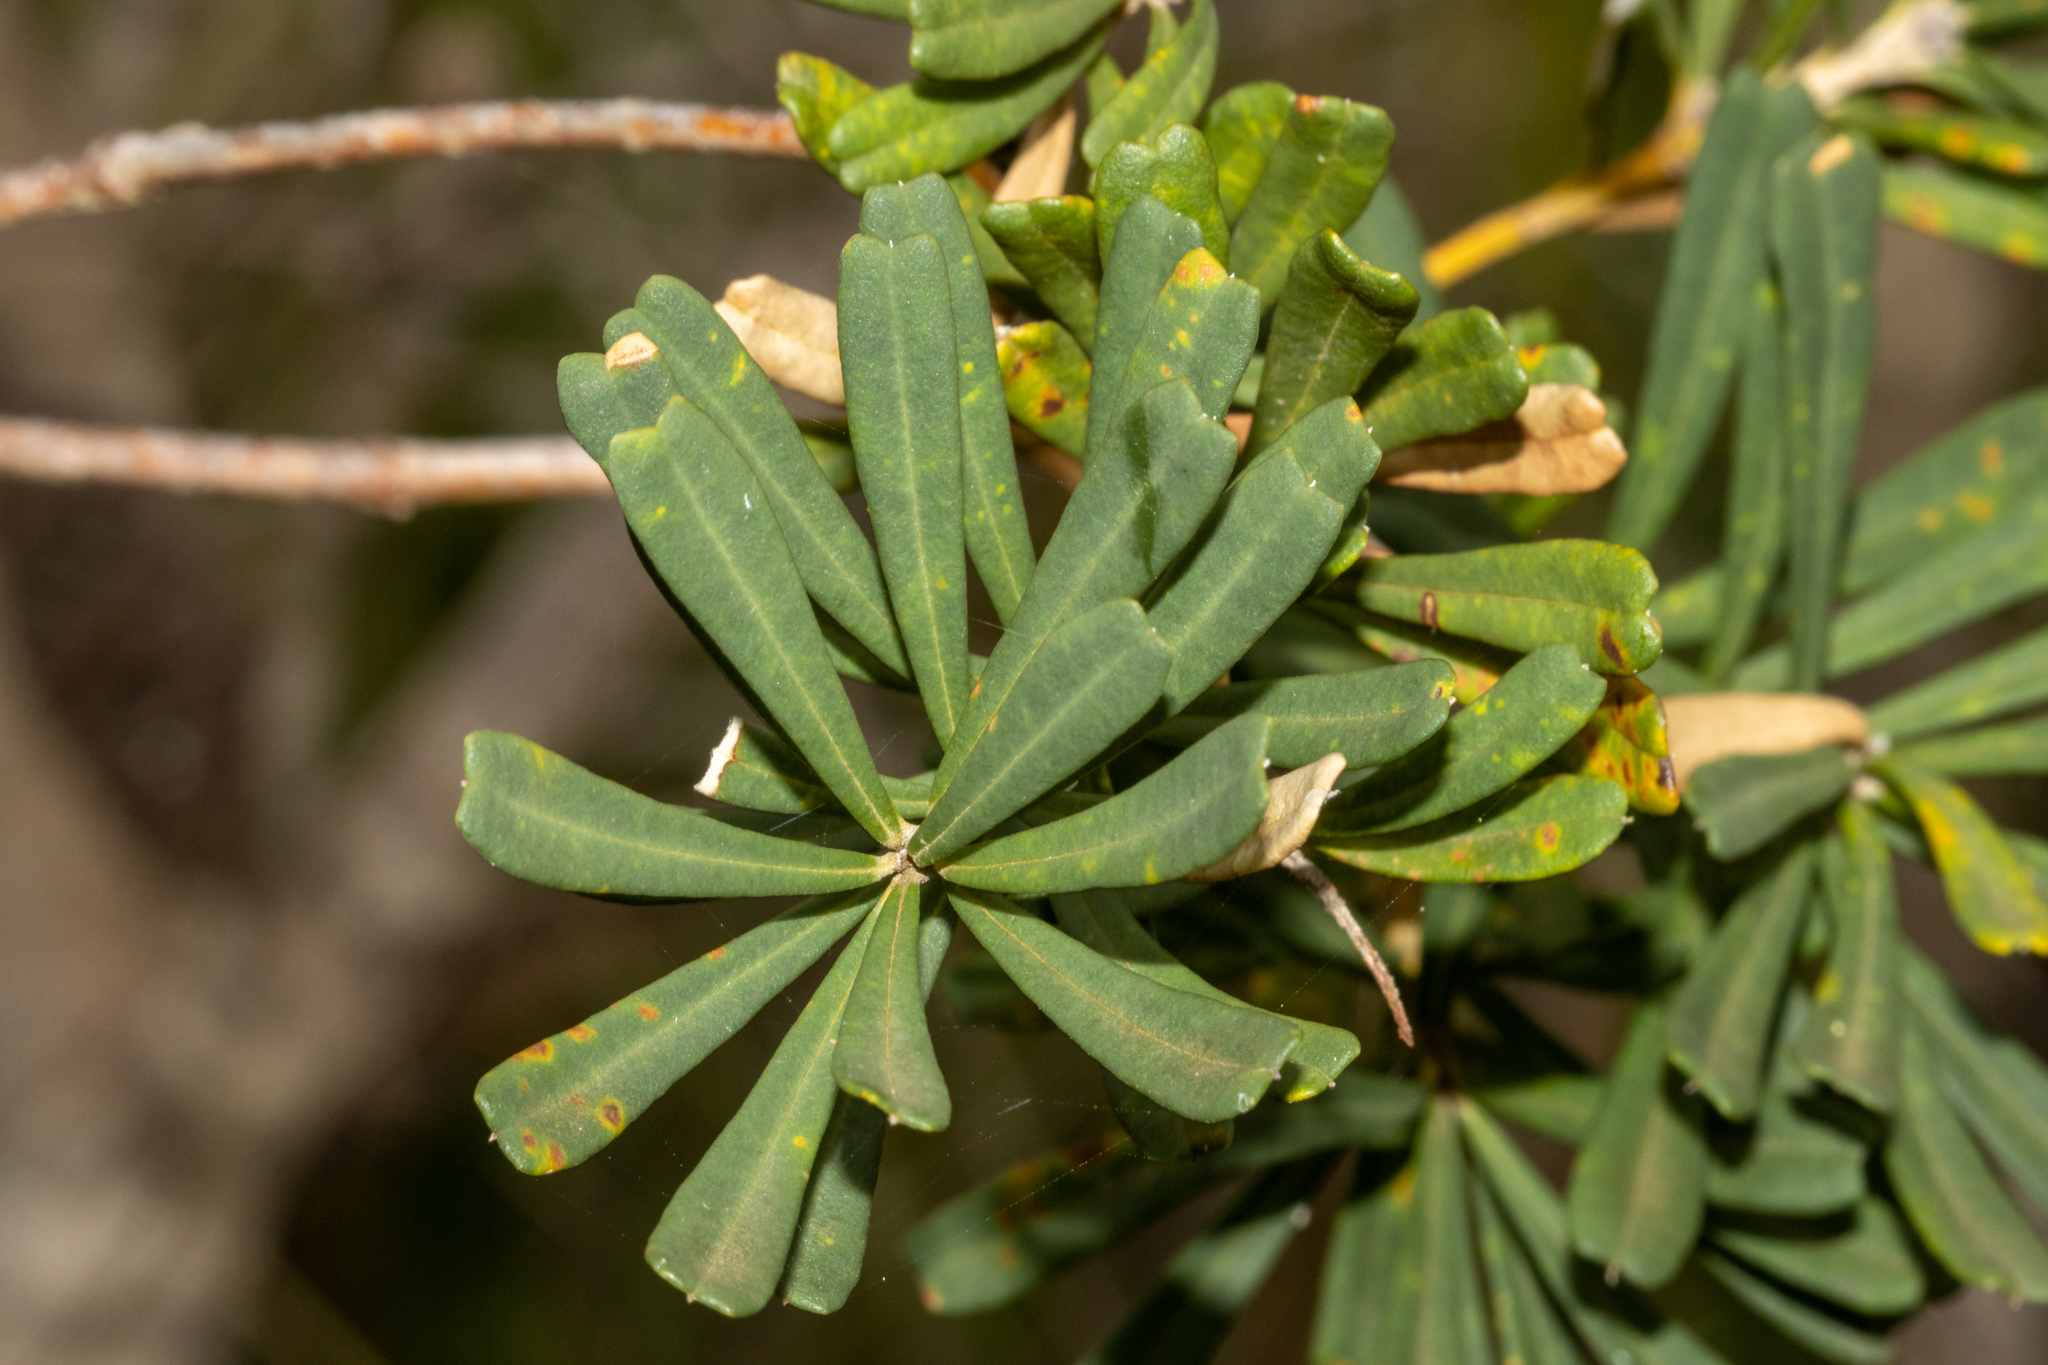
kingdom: Plantae
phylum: Tracheophyta
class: Magnoliopsida
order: Proteales
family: Proteaceae
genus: Banksia
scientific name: Banksia marginata
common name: Silver banksia
